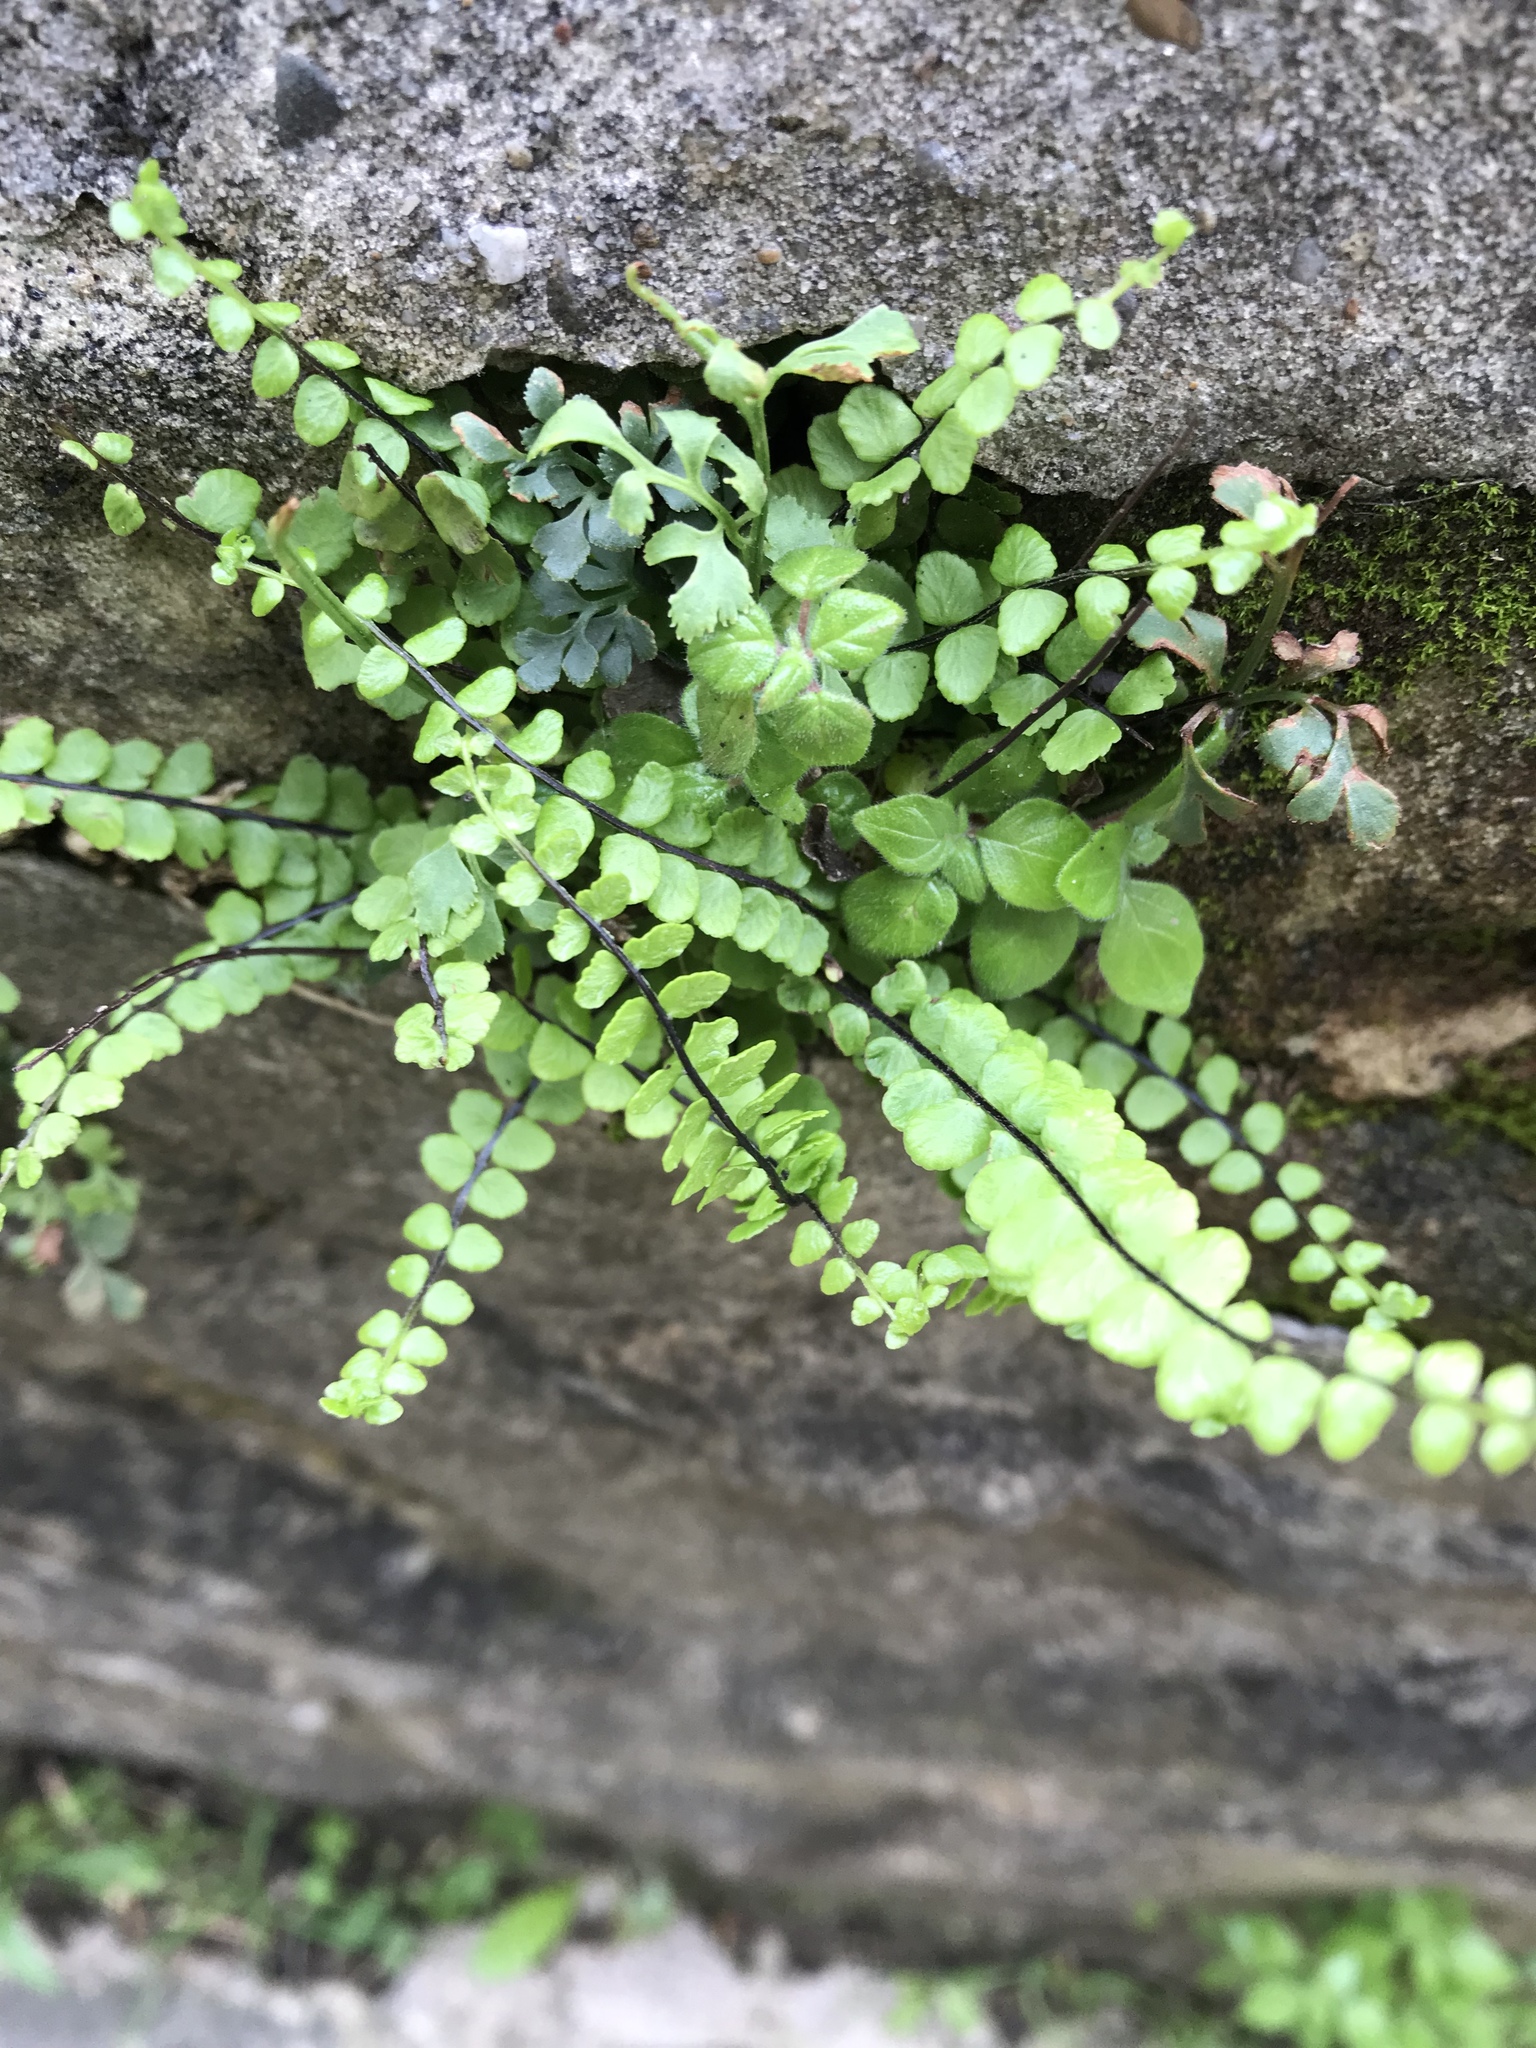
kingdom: Plantae
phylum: Tracheophyta
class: Polypodiopsida
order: Polypodiales
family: Aspleniaceae
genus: Asplenium
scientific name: Asplenium trichomanes
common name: Maidenhair spleenwort
